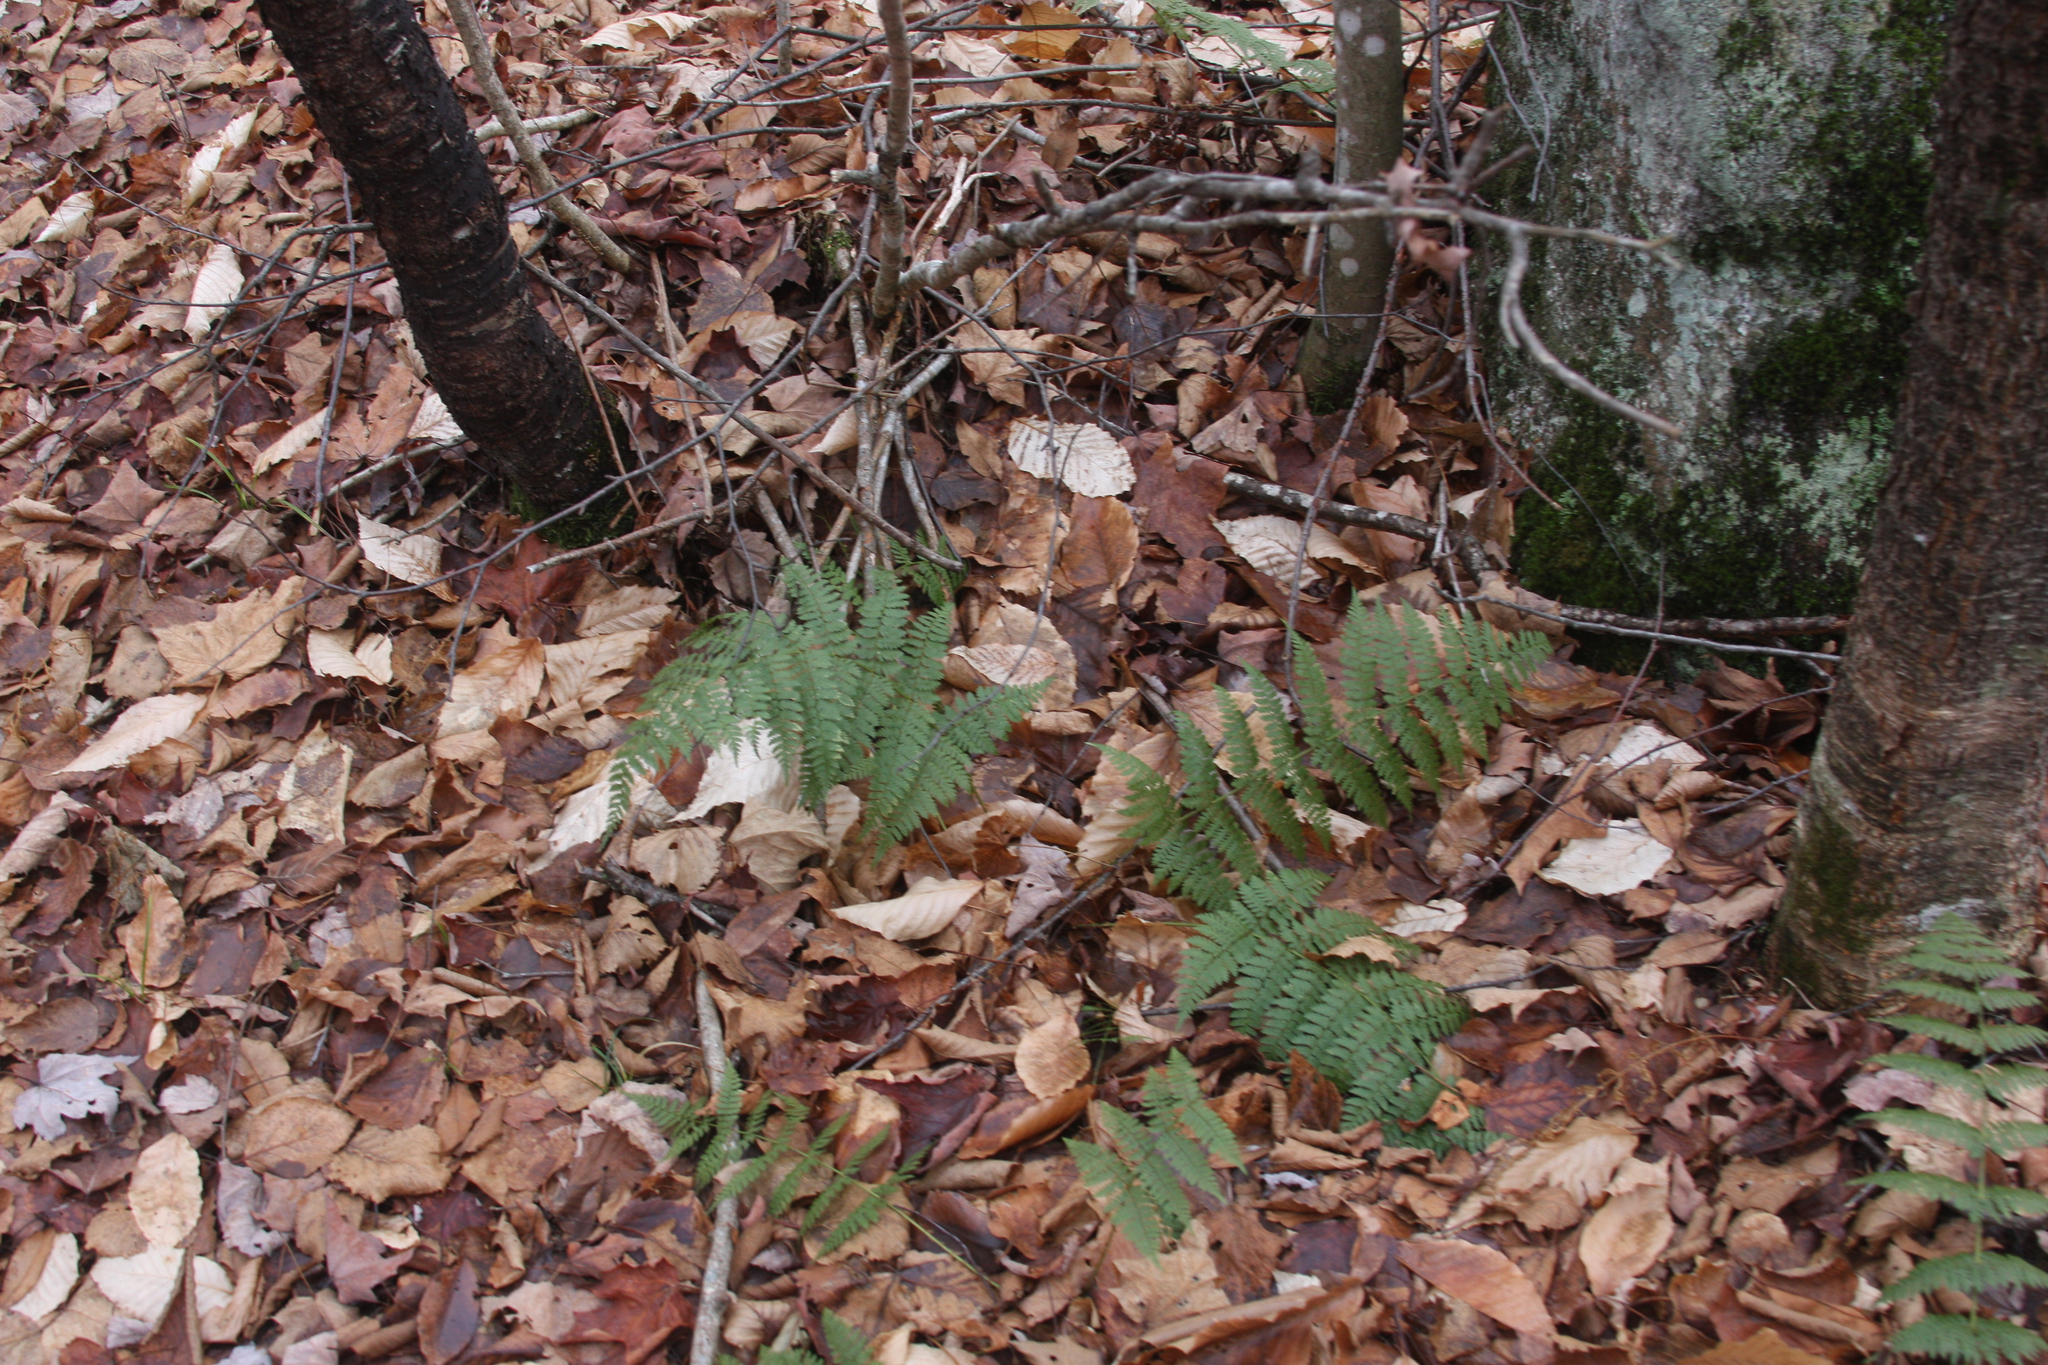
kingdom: Plantae
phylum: Tracheophyta
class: Polypodiopsida
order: Polypodiales
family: Dryopteridaceae
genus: Dryopteris
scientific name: Dryopteris intermedia
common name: Evergreen wood fern
